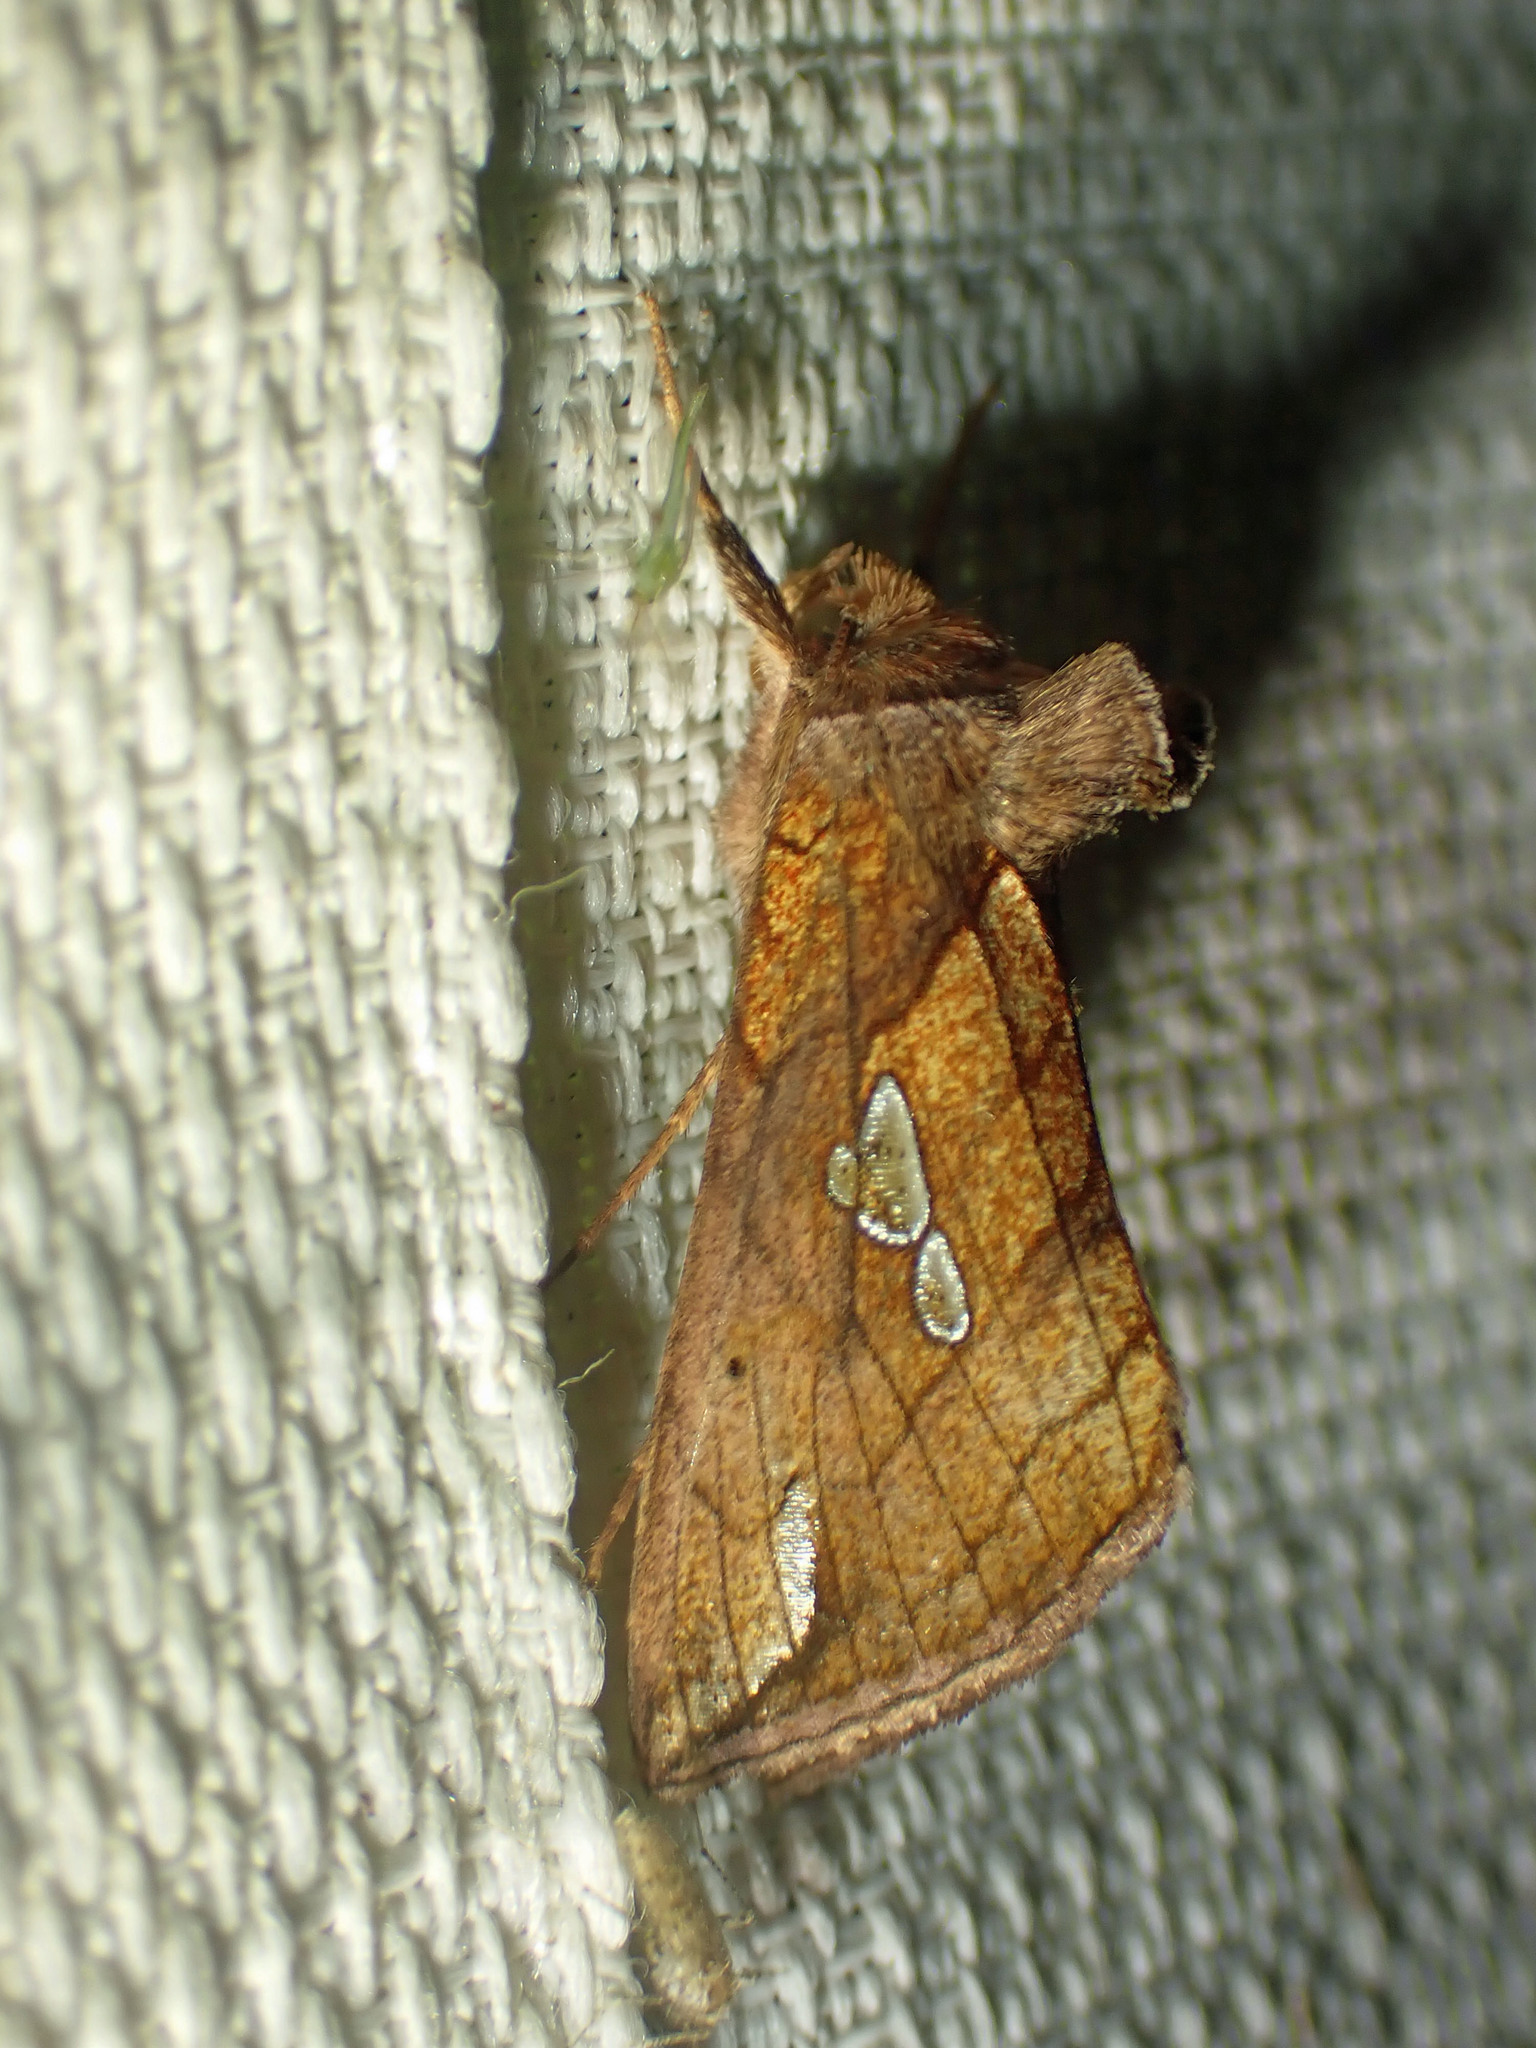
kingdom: Animalia
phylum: Arthropoda
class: Insecta
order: Lepidoptera
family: Noctuidae
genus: Plusia
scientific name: Plusia putnami
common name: Lempke's gold spot
